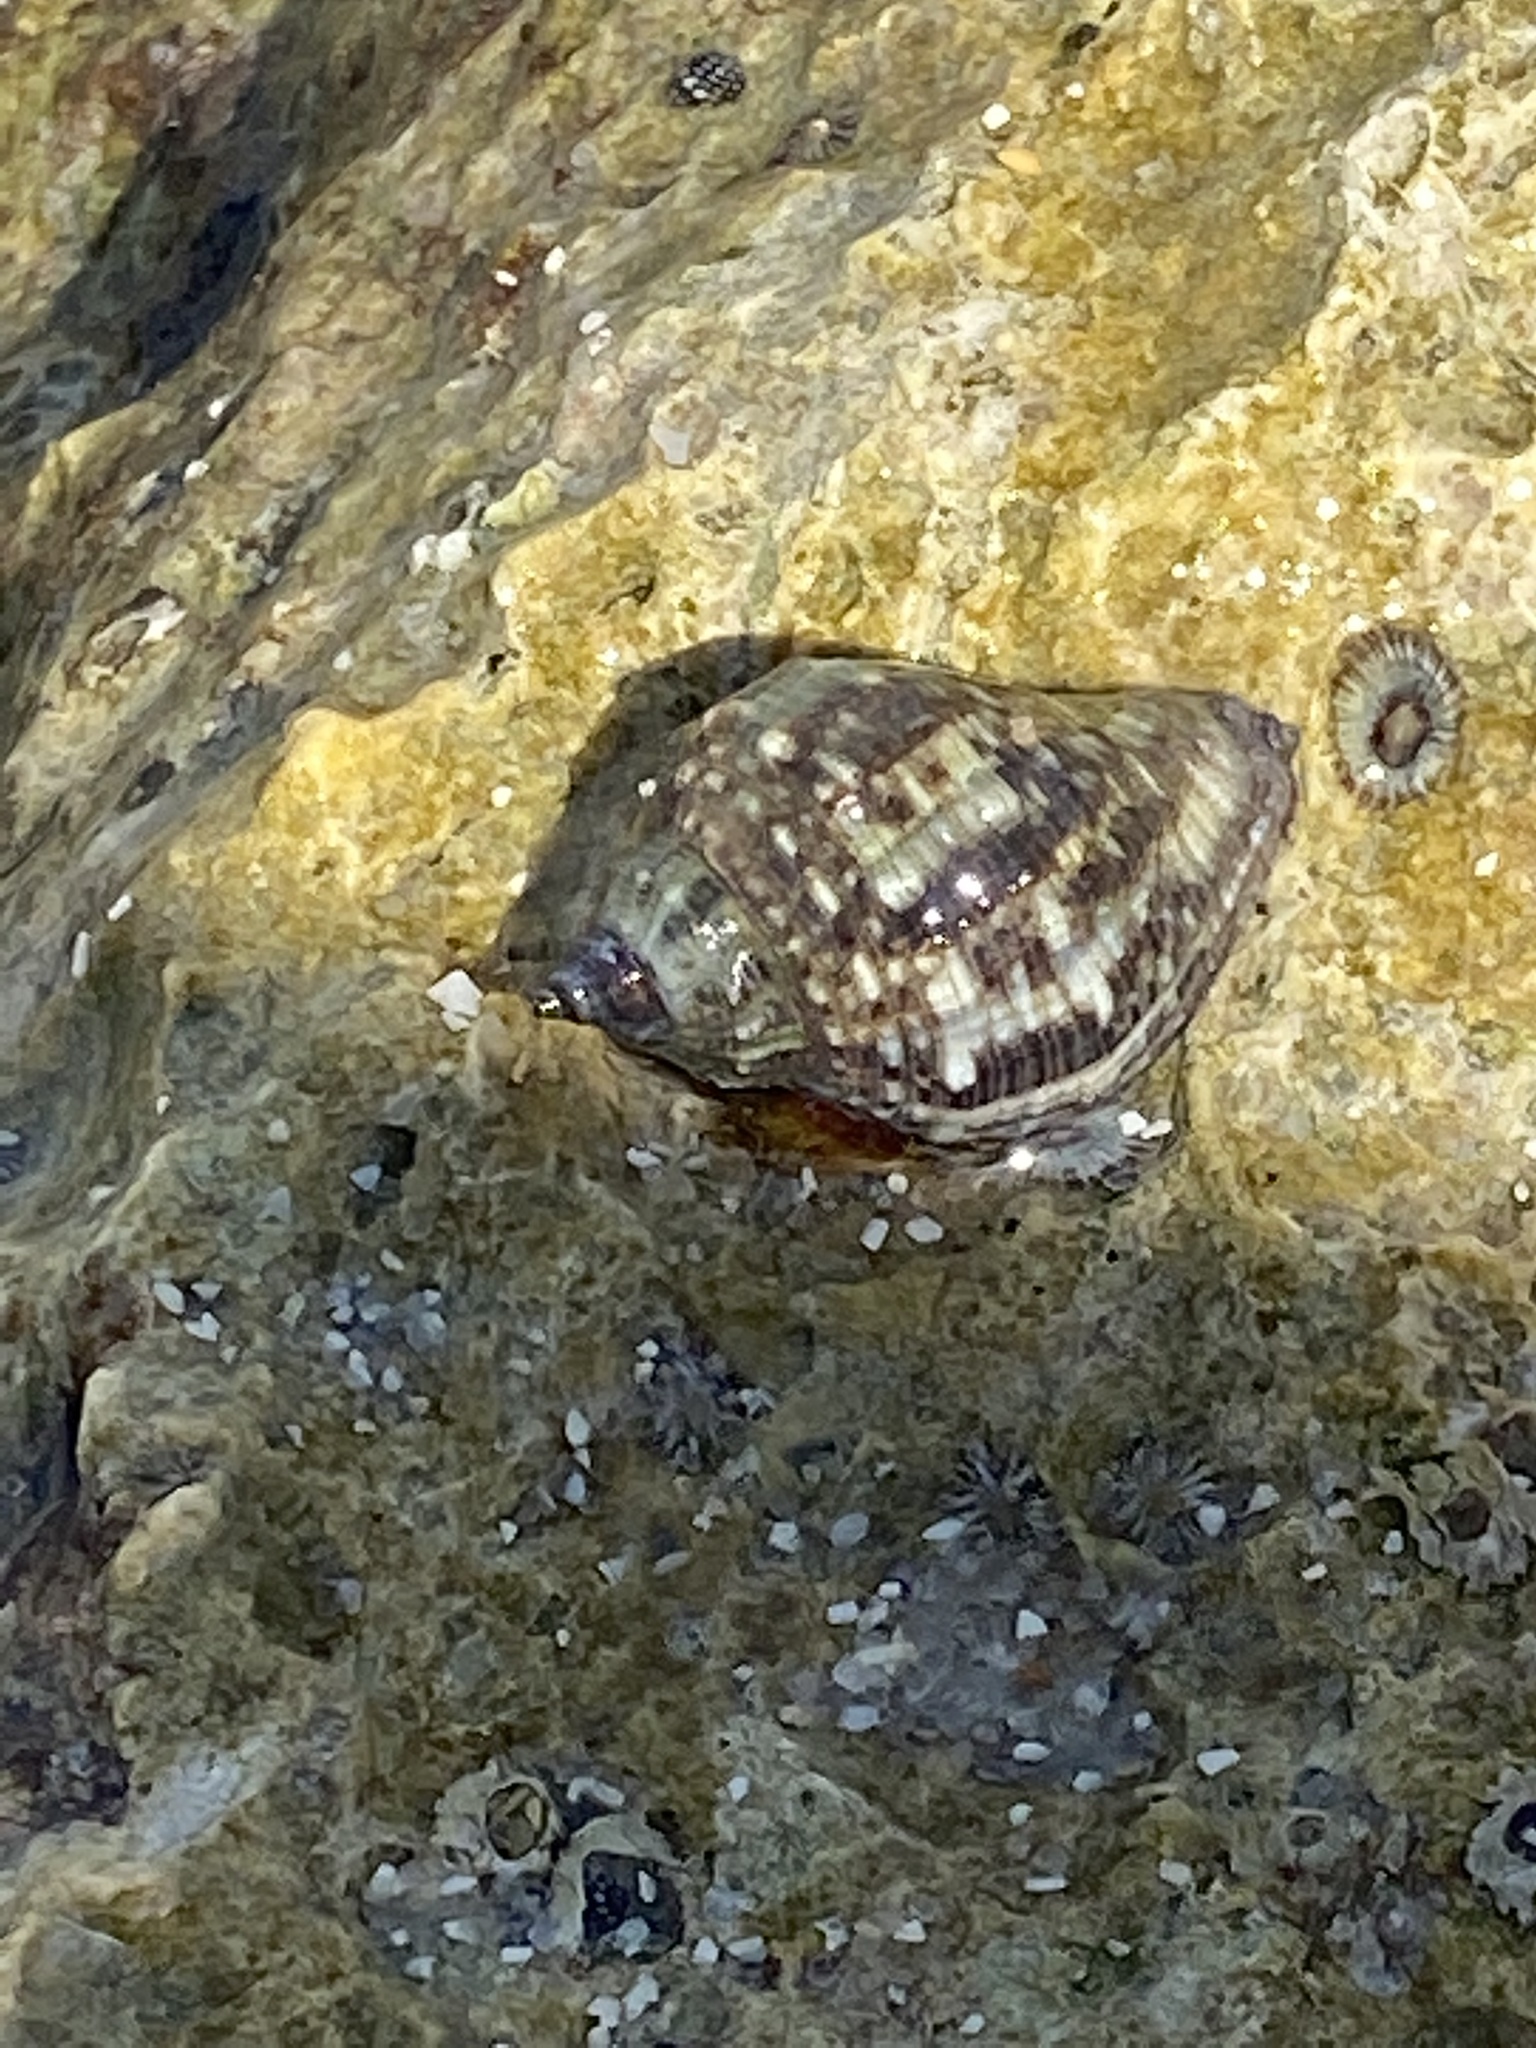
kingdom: Animalia
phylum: Mollusca
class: Gastropoda
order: Neogastropoda
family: Muricidae
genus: Stramonita
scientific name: Stramonita floridana
